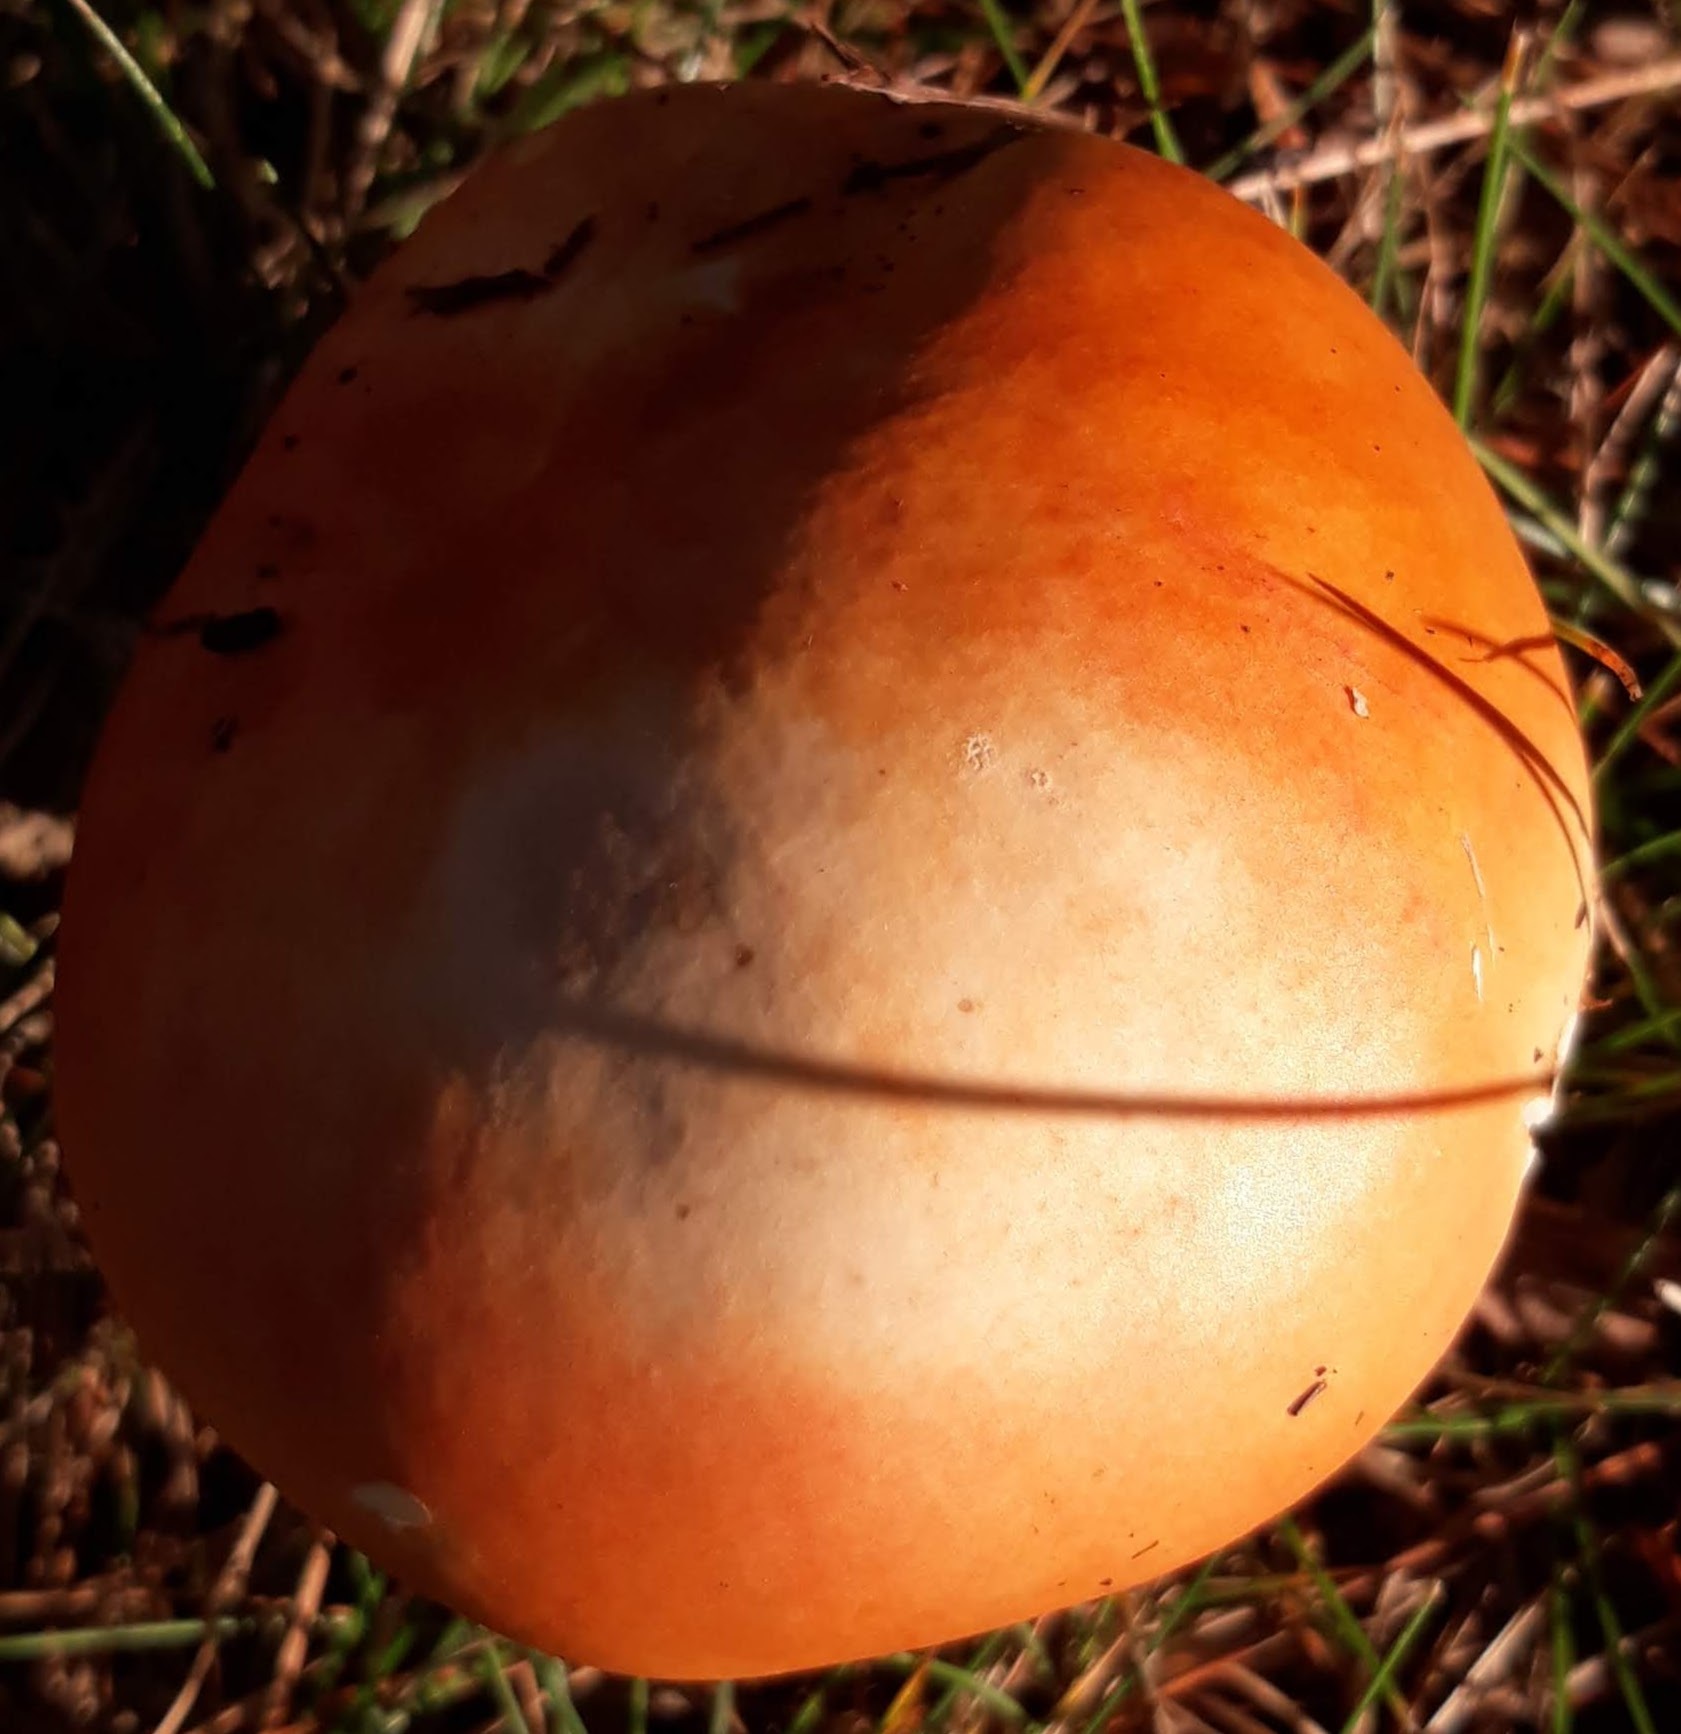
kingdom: Fungi
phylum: Basidiomycota
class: Agaricomycetes
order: Russulales
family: Russulaceae
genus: Russula
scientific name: Russula
